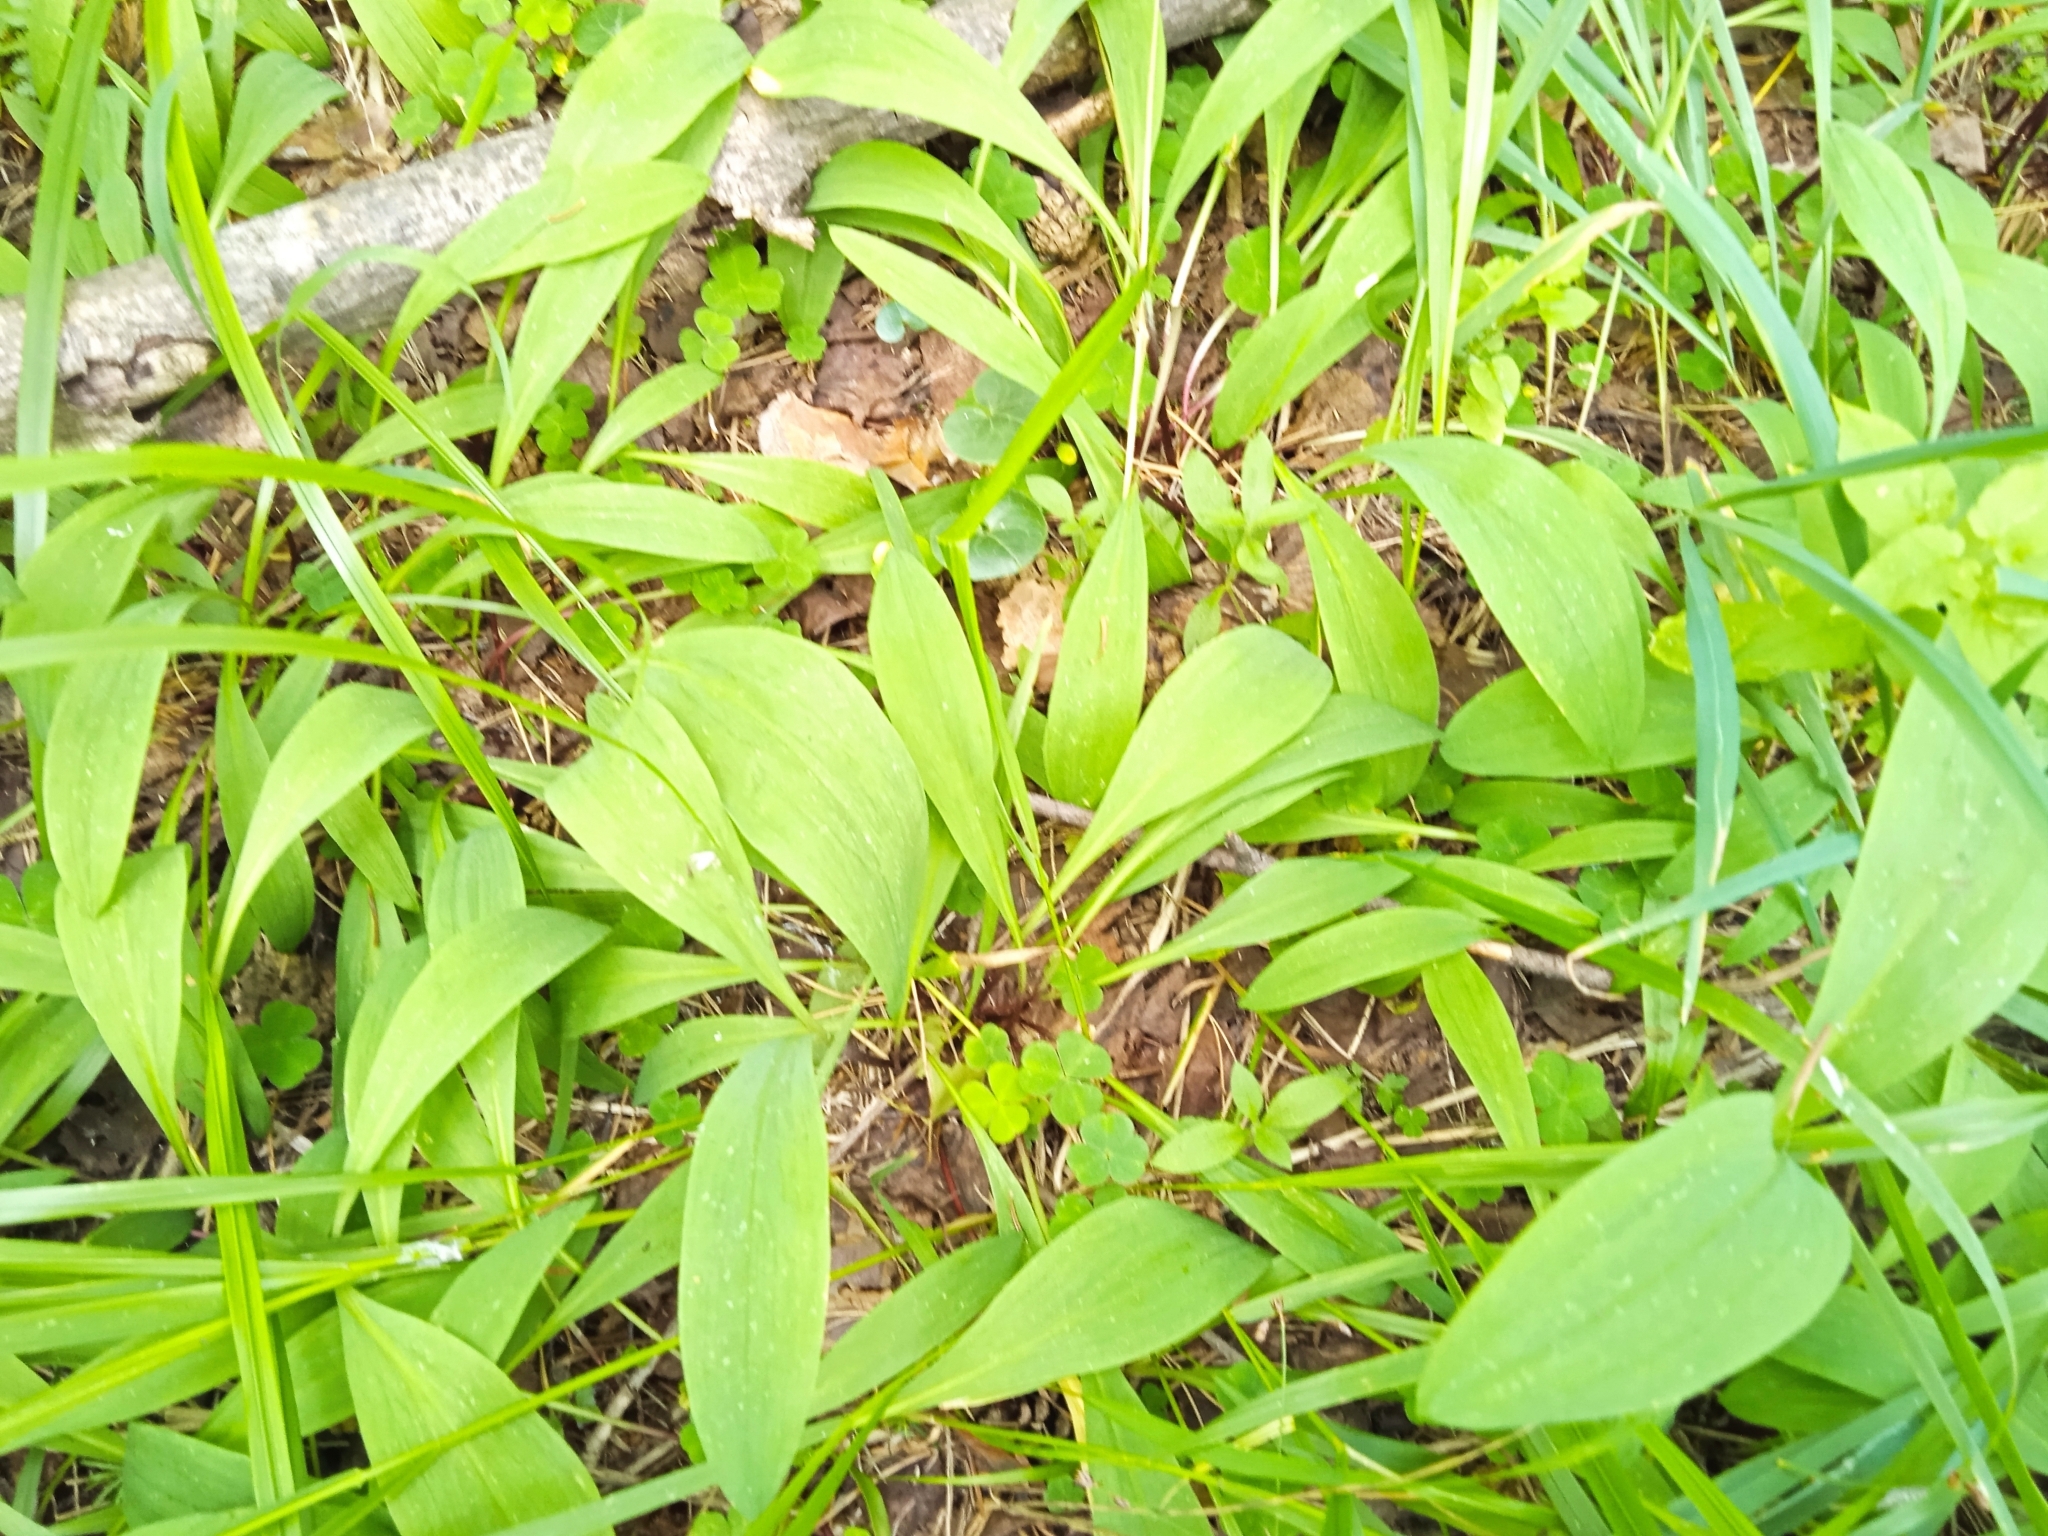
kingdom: Plantae
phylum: Tracheophyta
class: Liliopsida
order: Asparagales
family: Amaryllidaceae
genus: Allium
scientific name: Allium microdictyon
